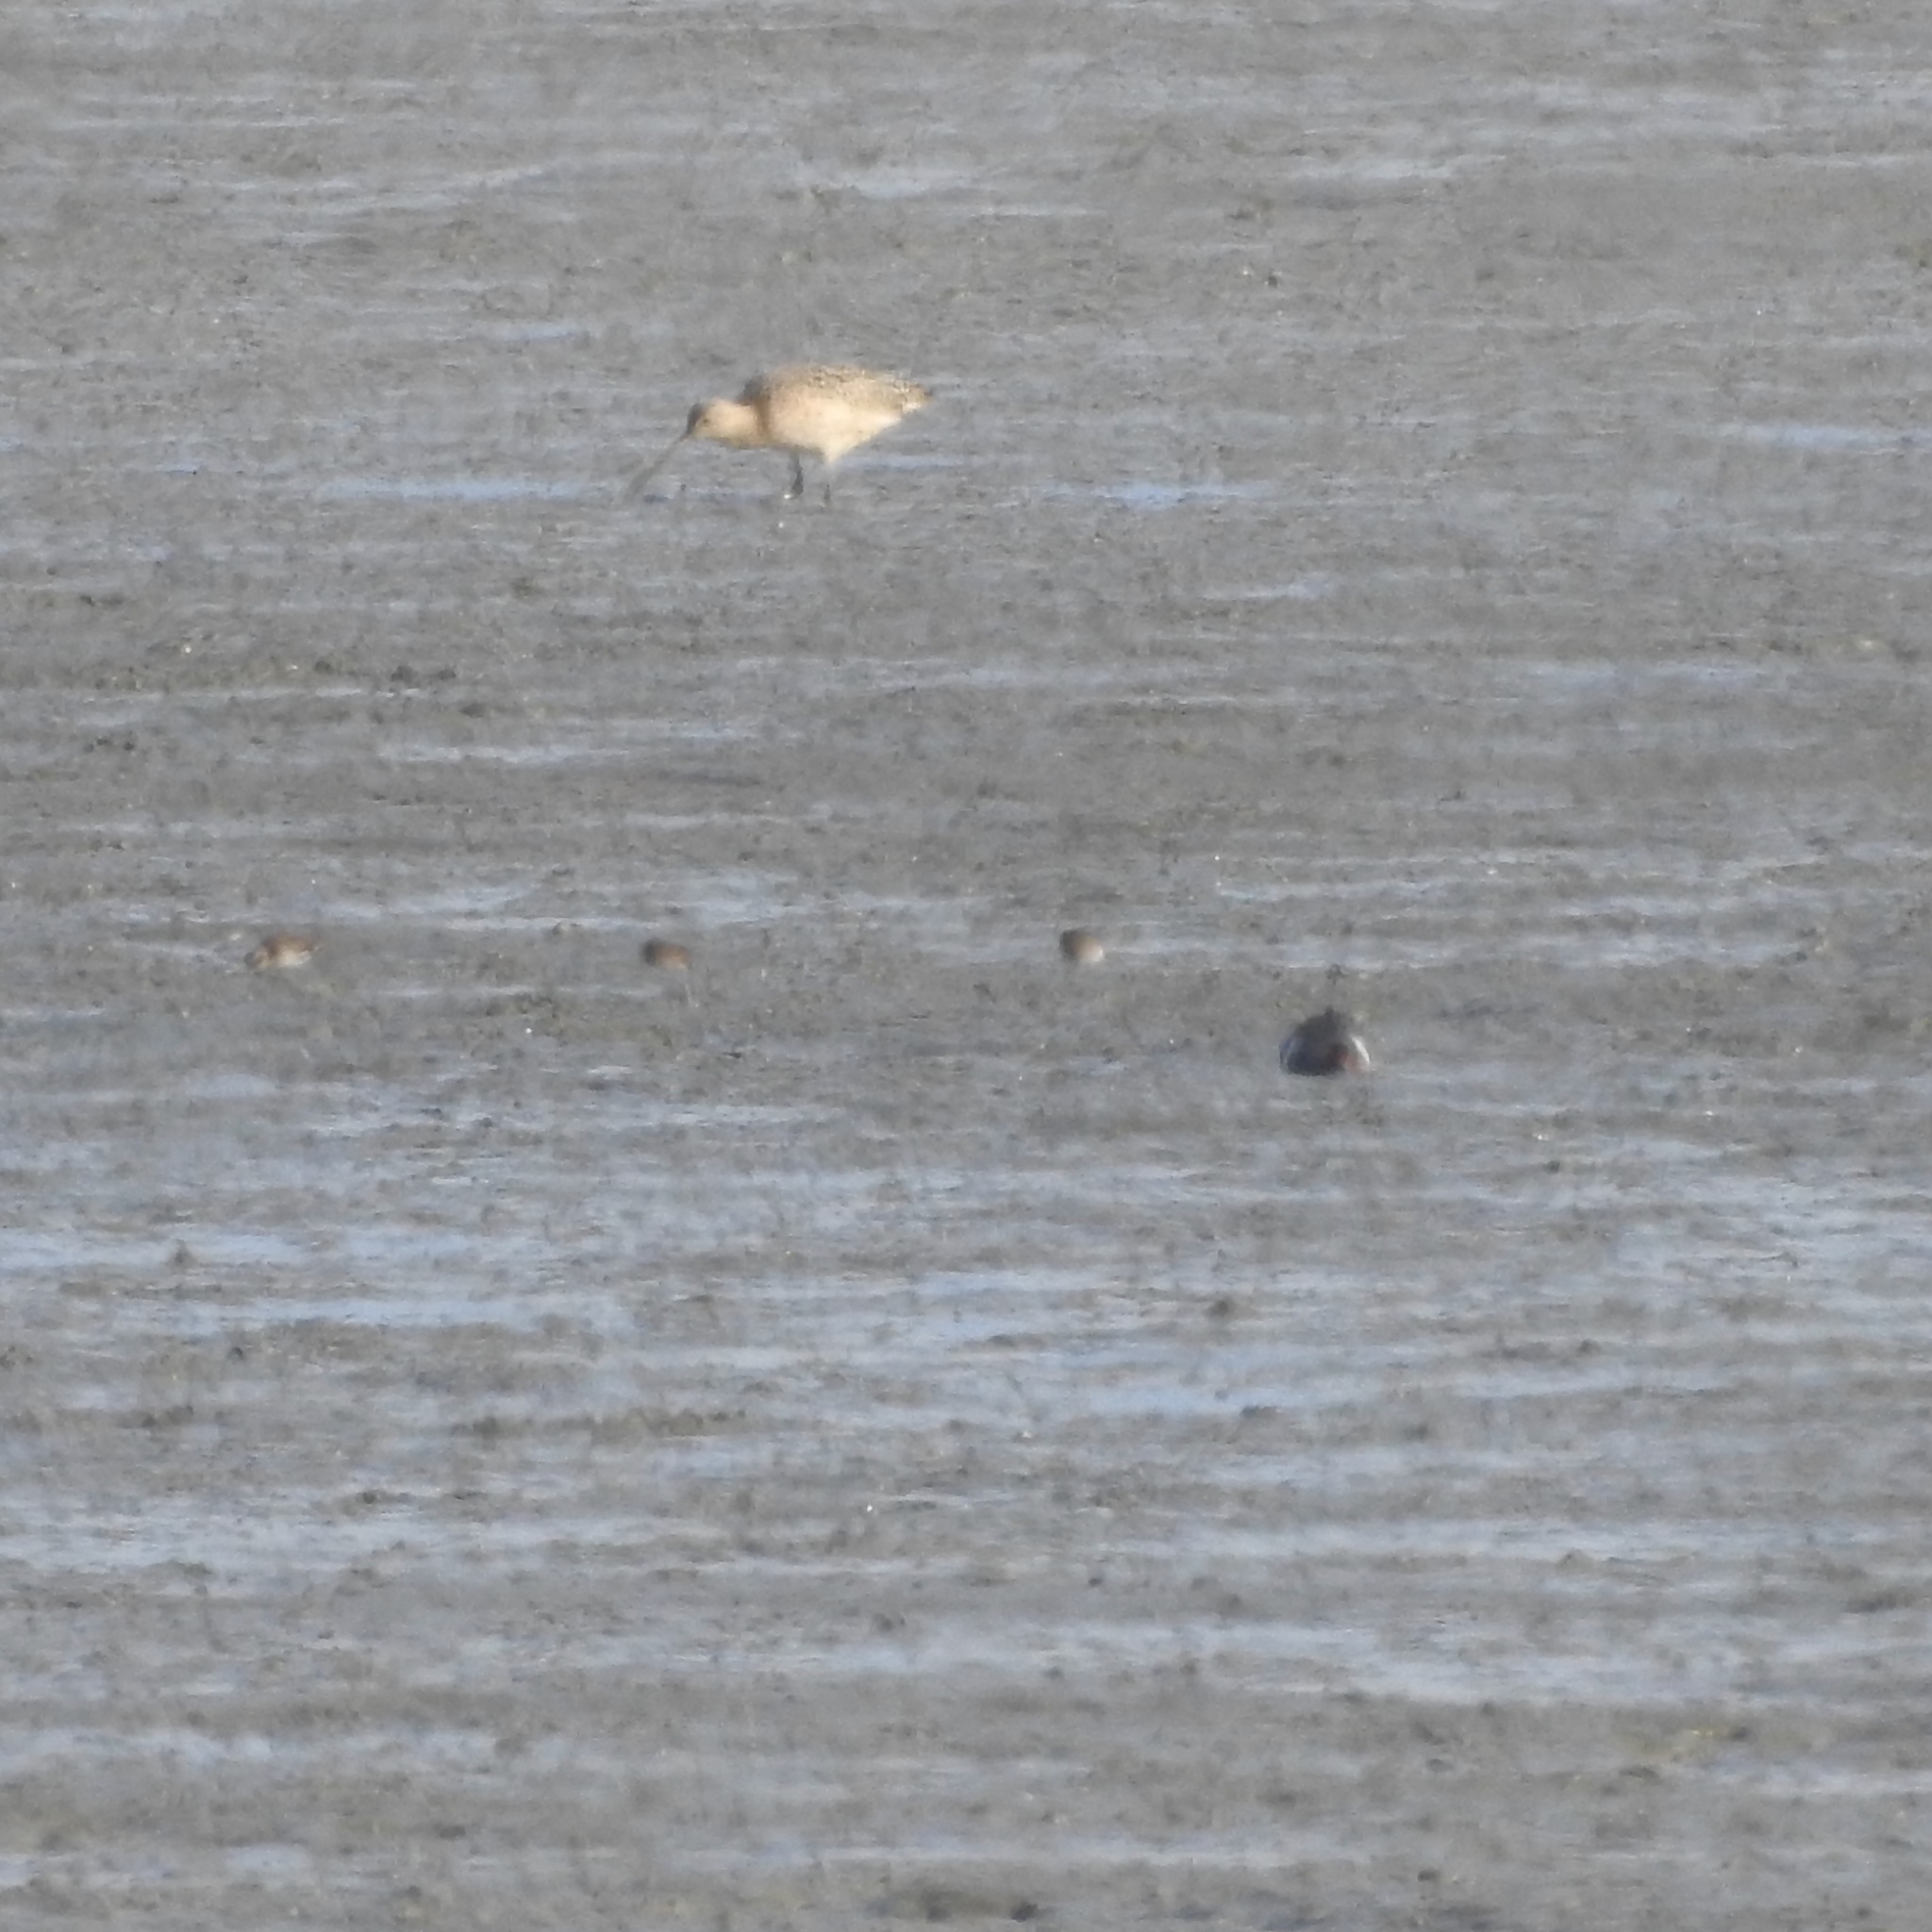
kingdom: Animalia
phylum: Chordata
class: Aves
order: Charadriiformes
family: Scolopacidae
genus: Numenius
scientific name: Numenius americanus
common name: Long-billed curlew
